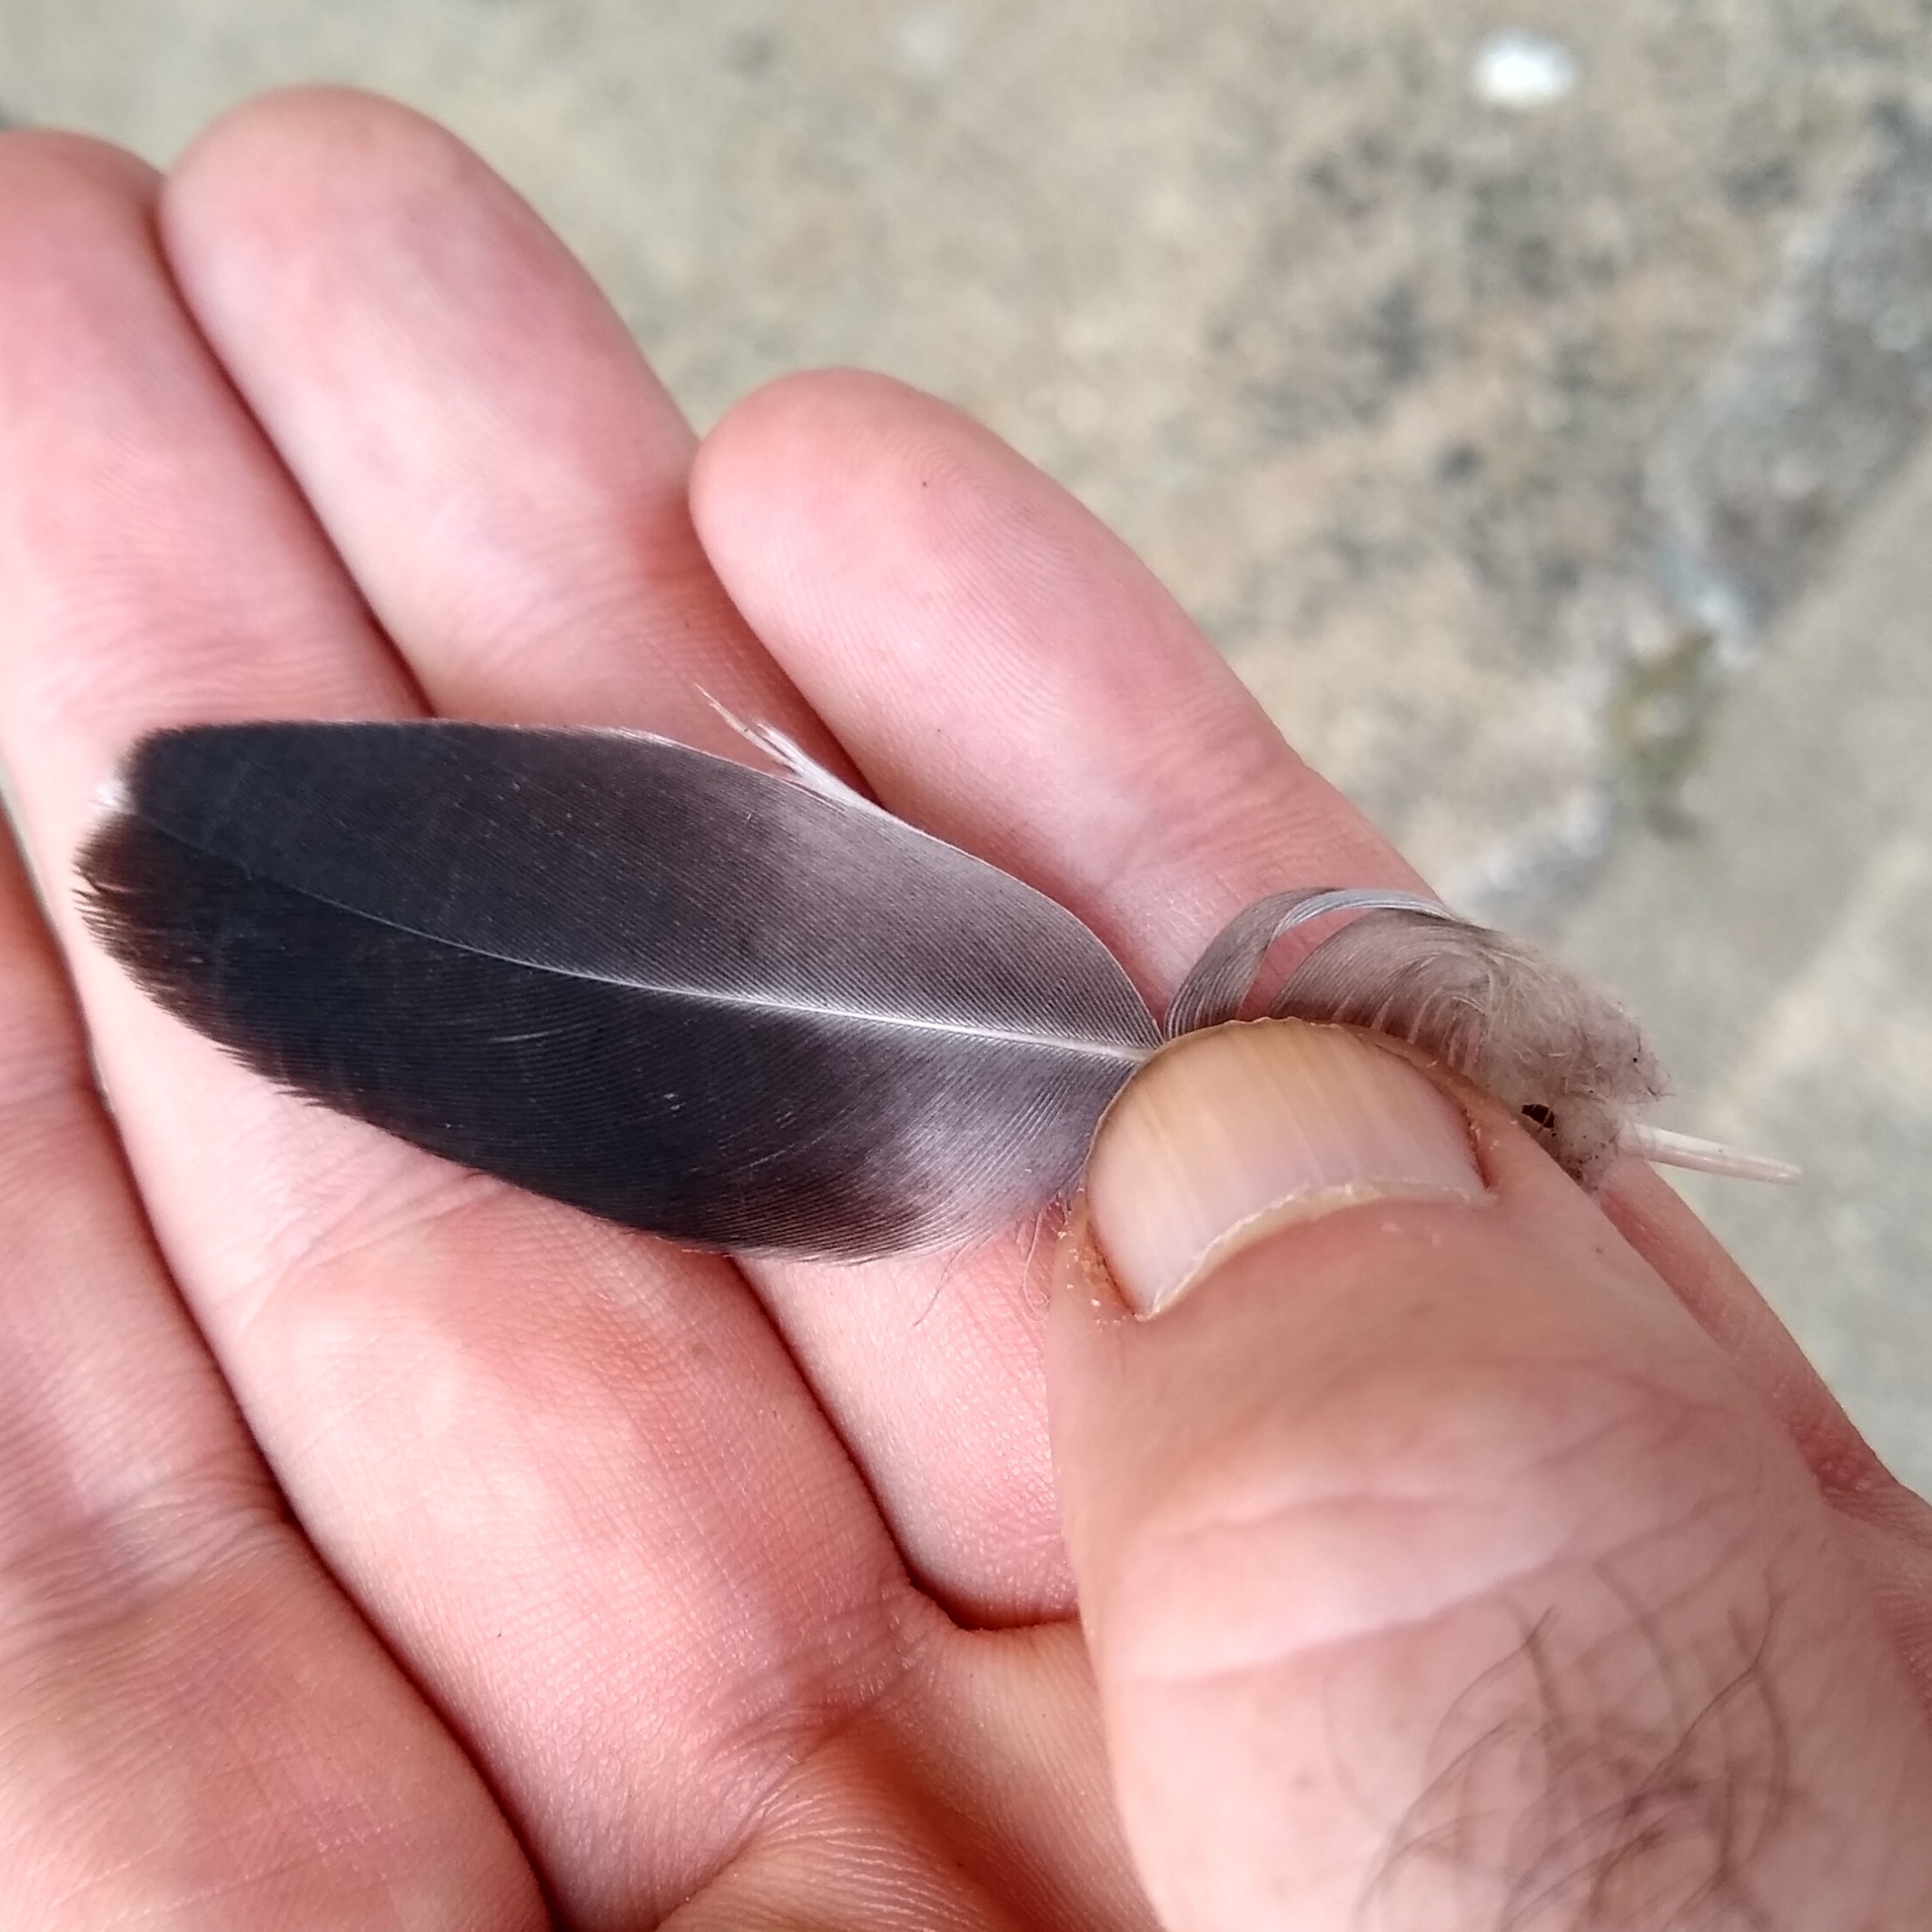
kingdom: Animalia
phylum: Chordata
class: Aves
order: Columbiformes
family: Columbidae
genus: Columba
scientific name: Columba livia
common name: Rock pigeon
